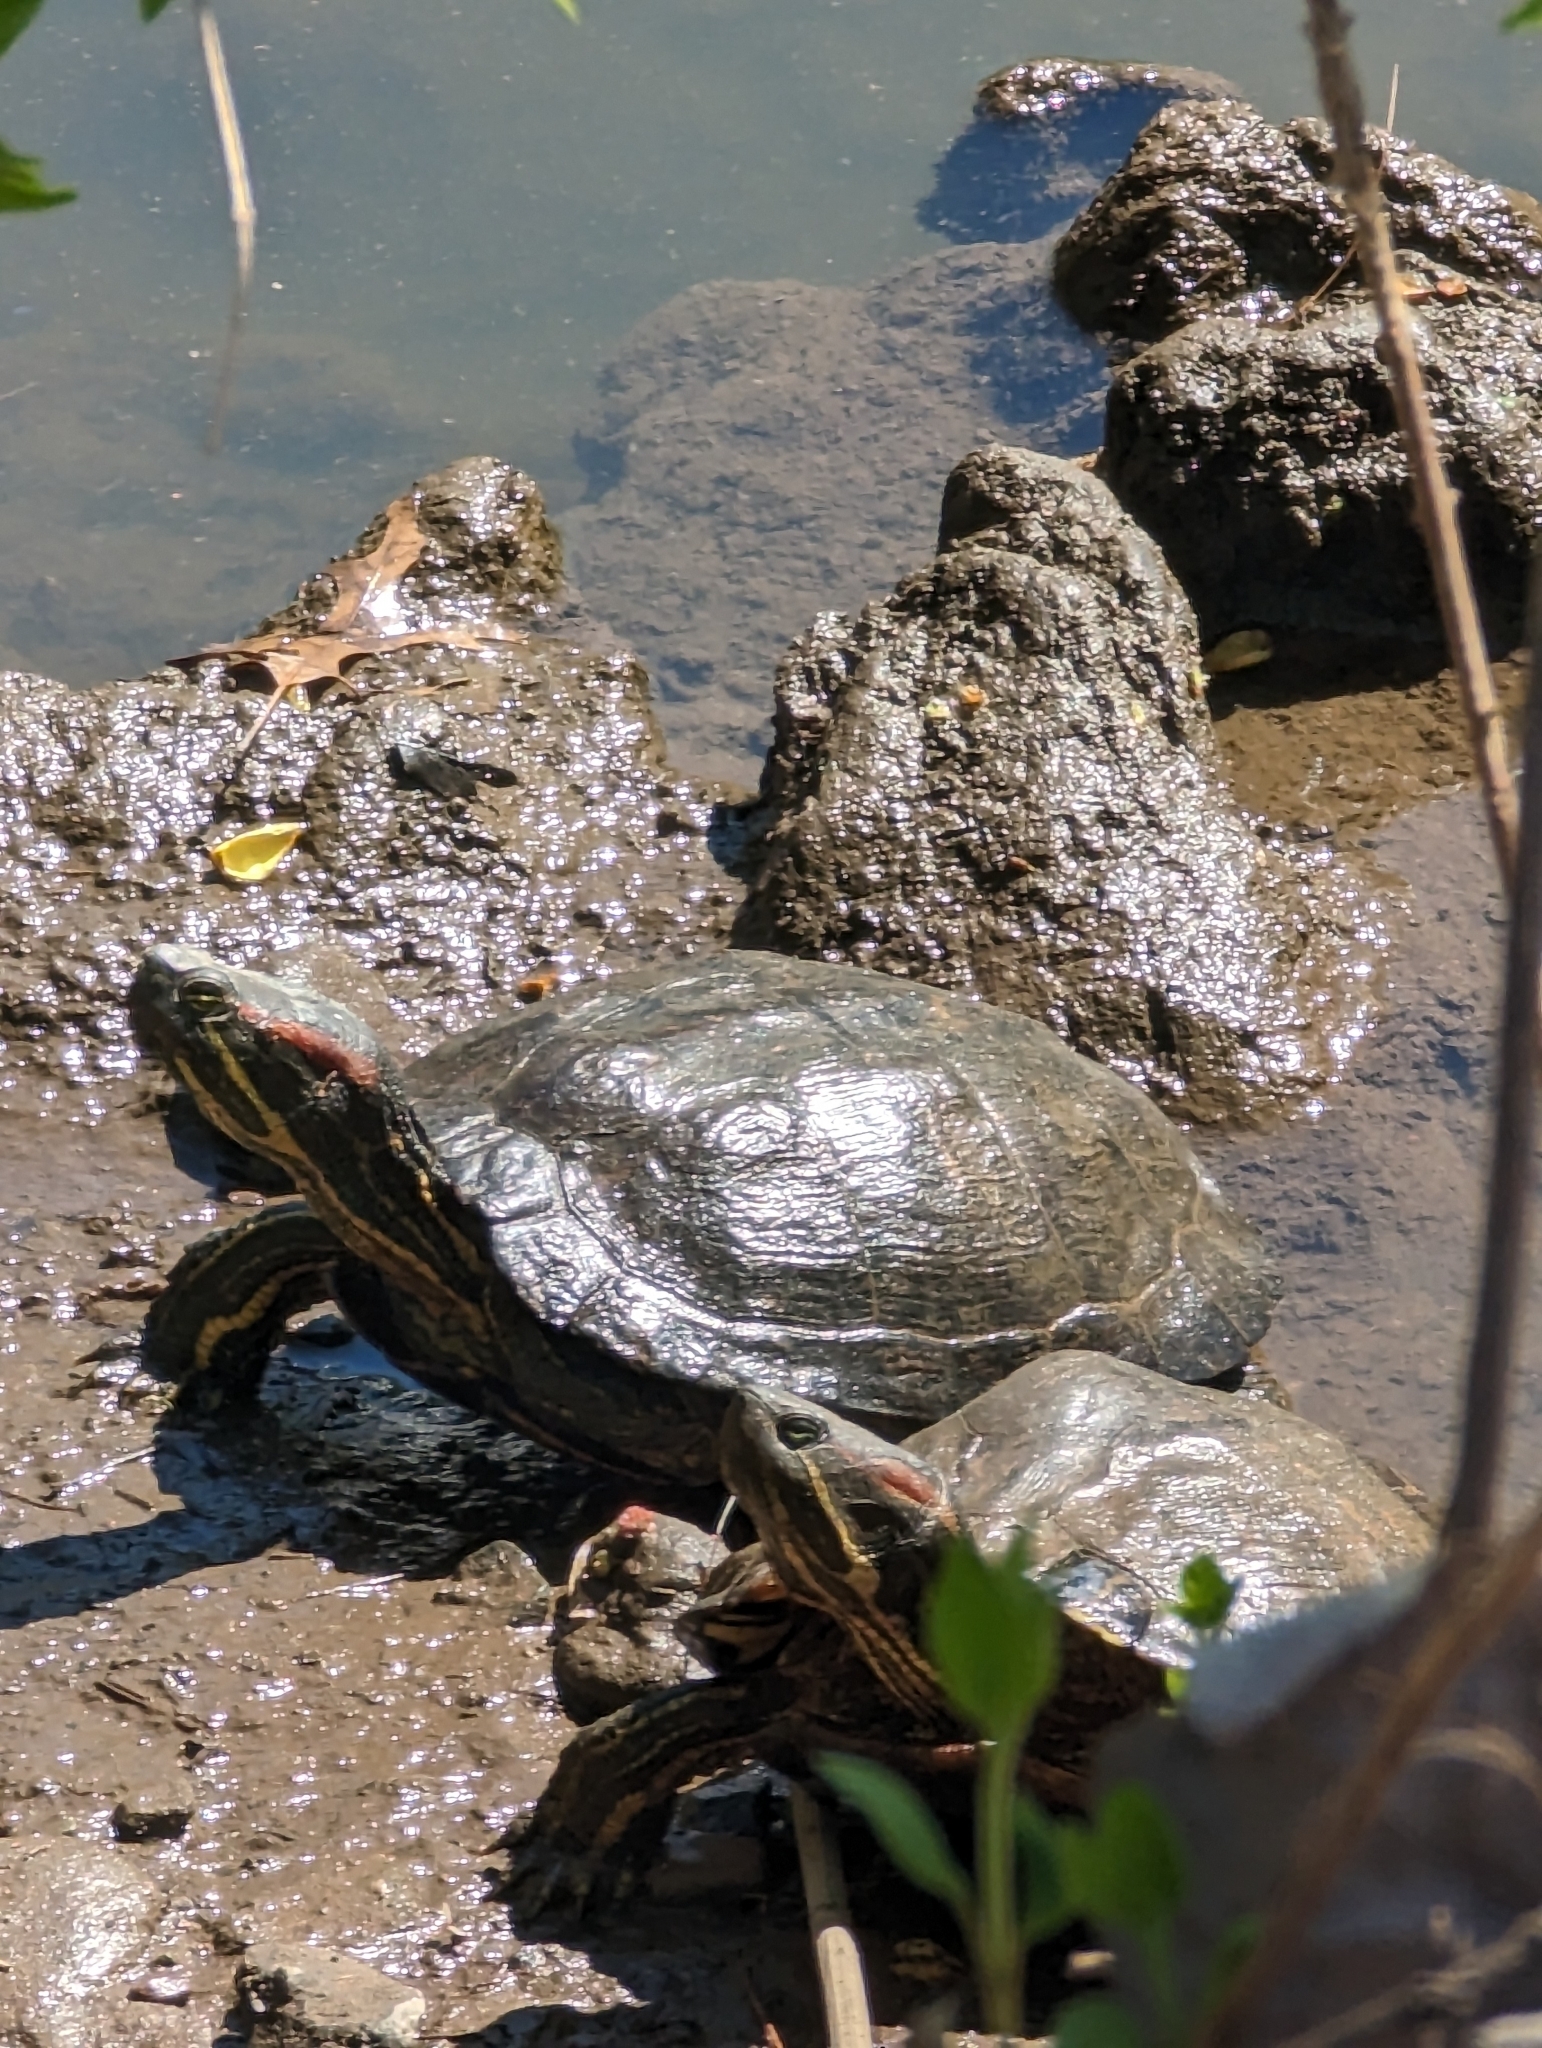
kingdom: Animalia
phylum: Chordata
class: Testudines
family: Emydidae
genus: Trachemys
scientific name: Trachemys scripta
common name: Slider
